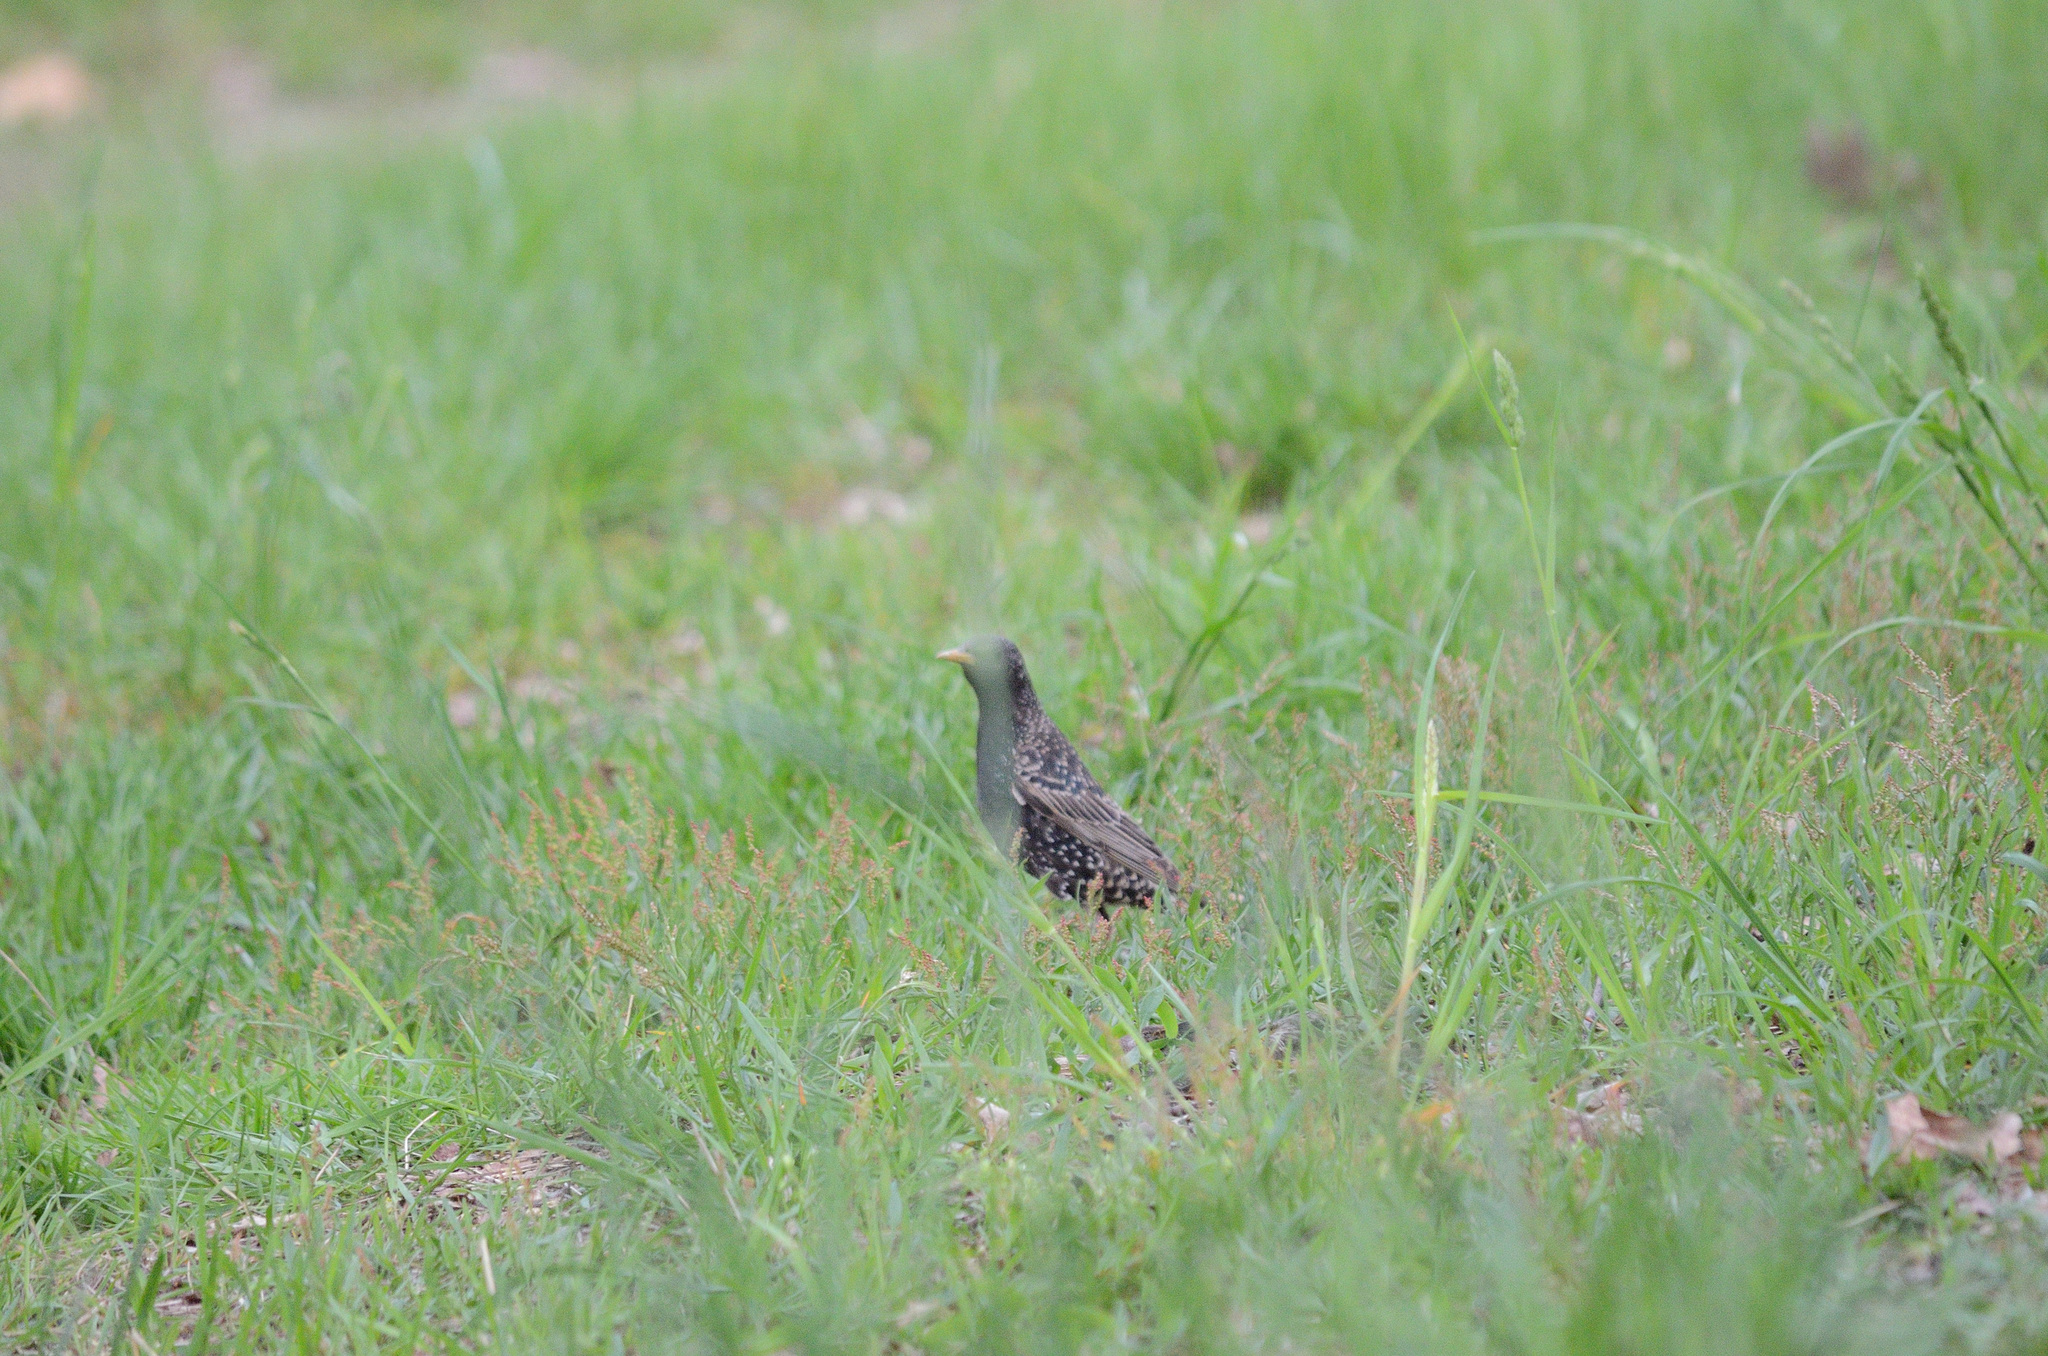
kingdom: Animalia
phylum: Chordata
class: Aves
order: Passeriformes
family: Sturnidae
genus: Sturnus
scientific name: Sturnus vulgaris
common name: Common starling
